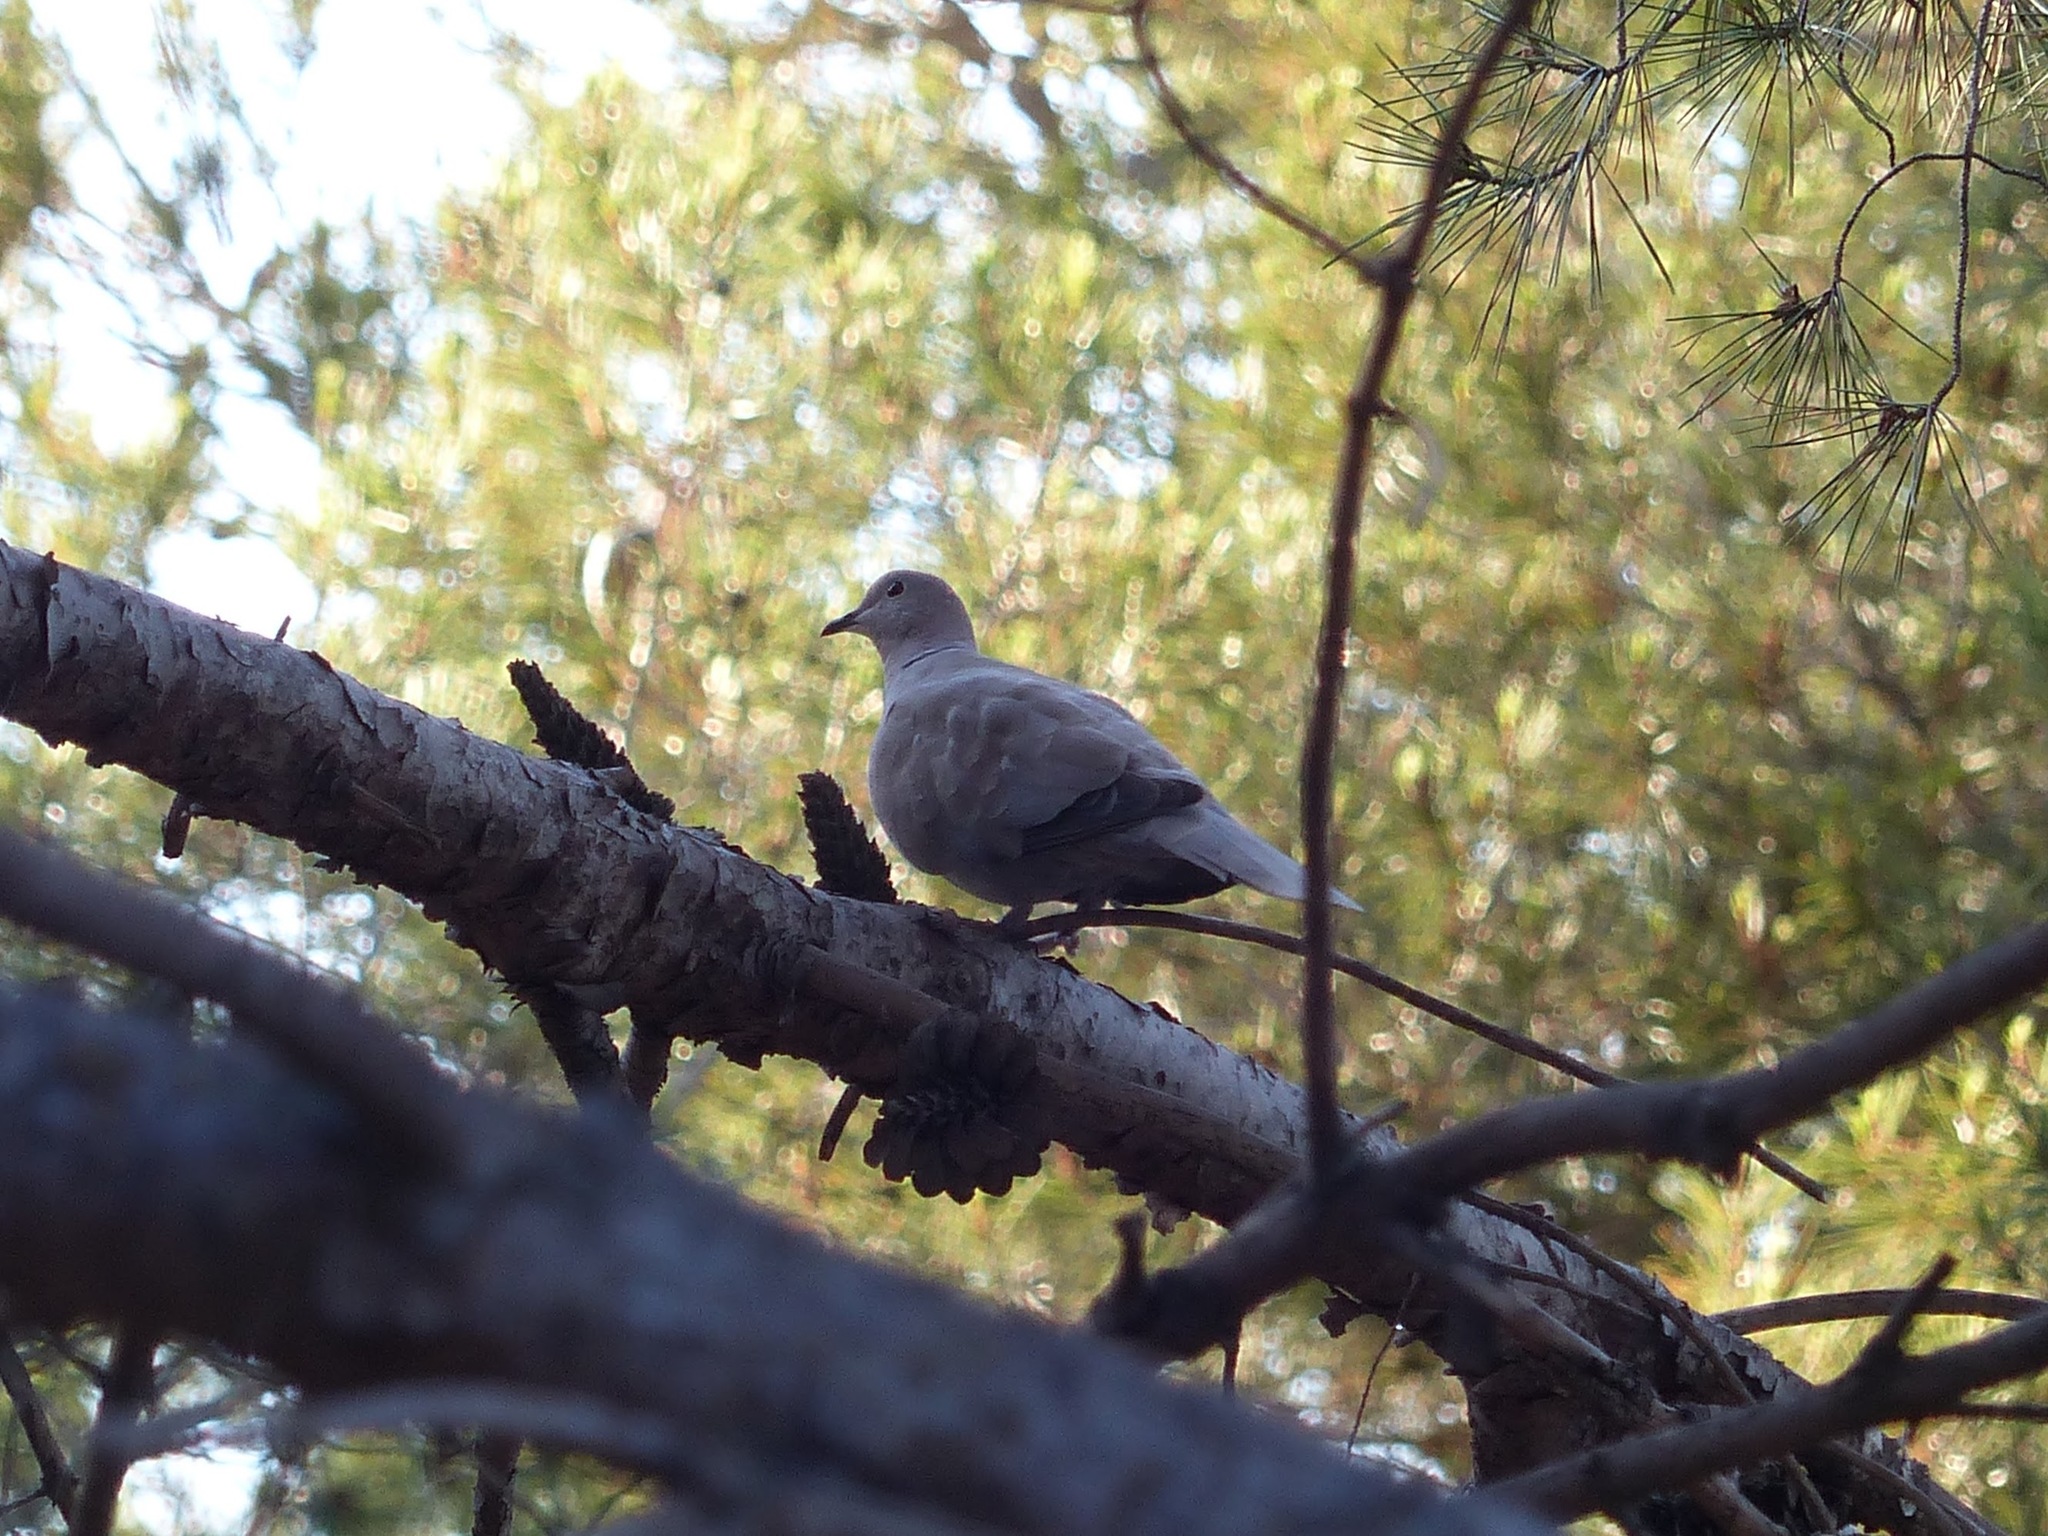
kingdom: Animalia
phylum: Chordata
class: Aves
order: Columbiformes
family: Columbidae
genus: Streptopelia
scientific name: Streptopelia decaocto
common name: Eurasian collared dove
